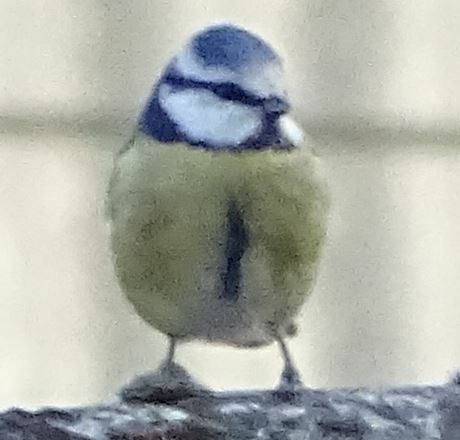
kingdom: Animalia
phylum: Chordata
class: Aves
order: Passeriformes
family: Paridae
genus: Cyanistes
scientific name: Cyanistes caeruleus
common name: Eurasian blue tit
